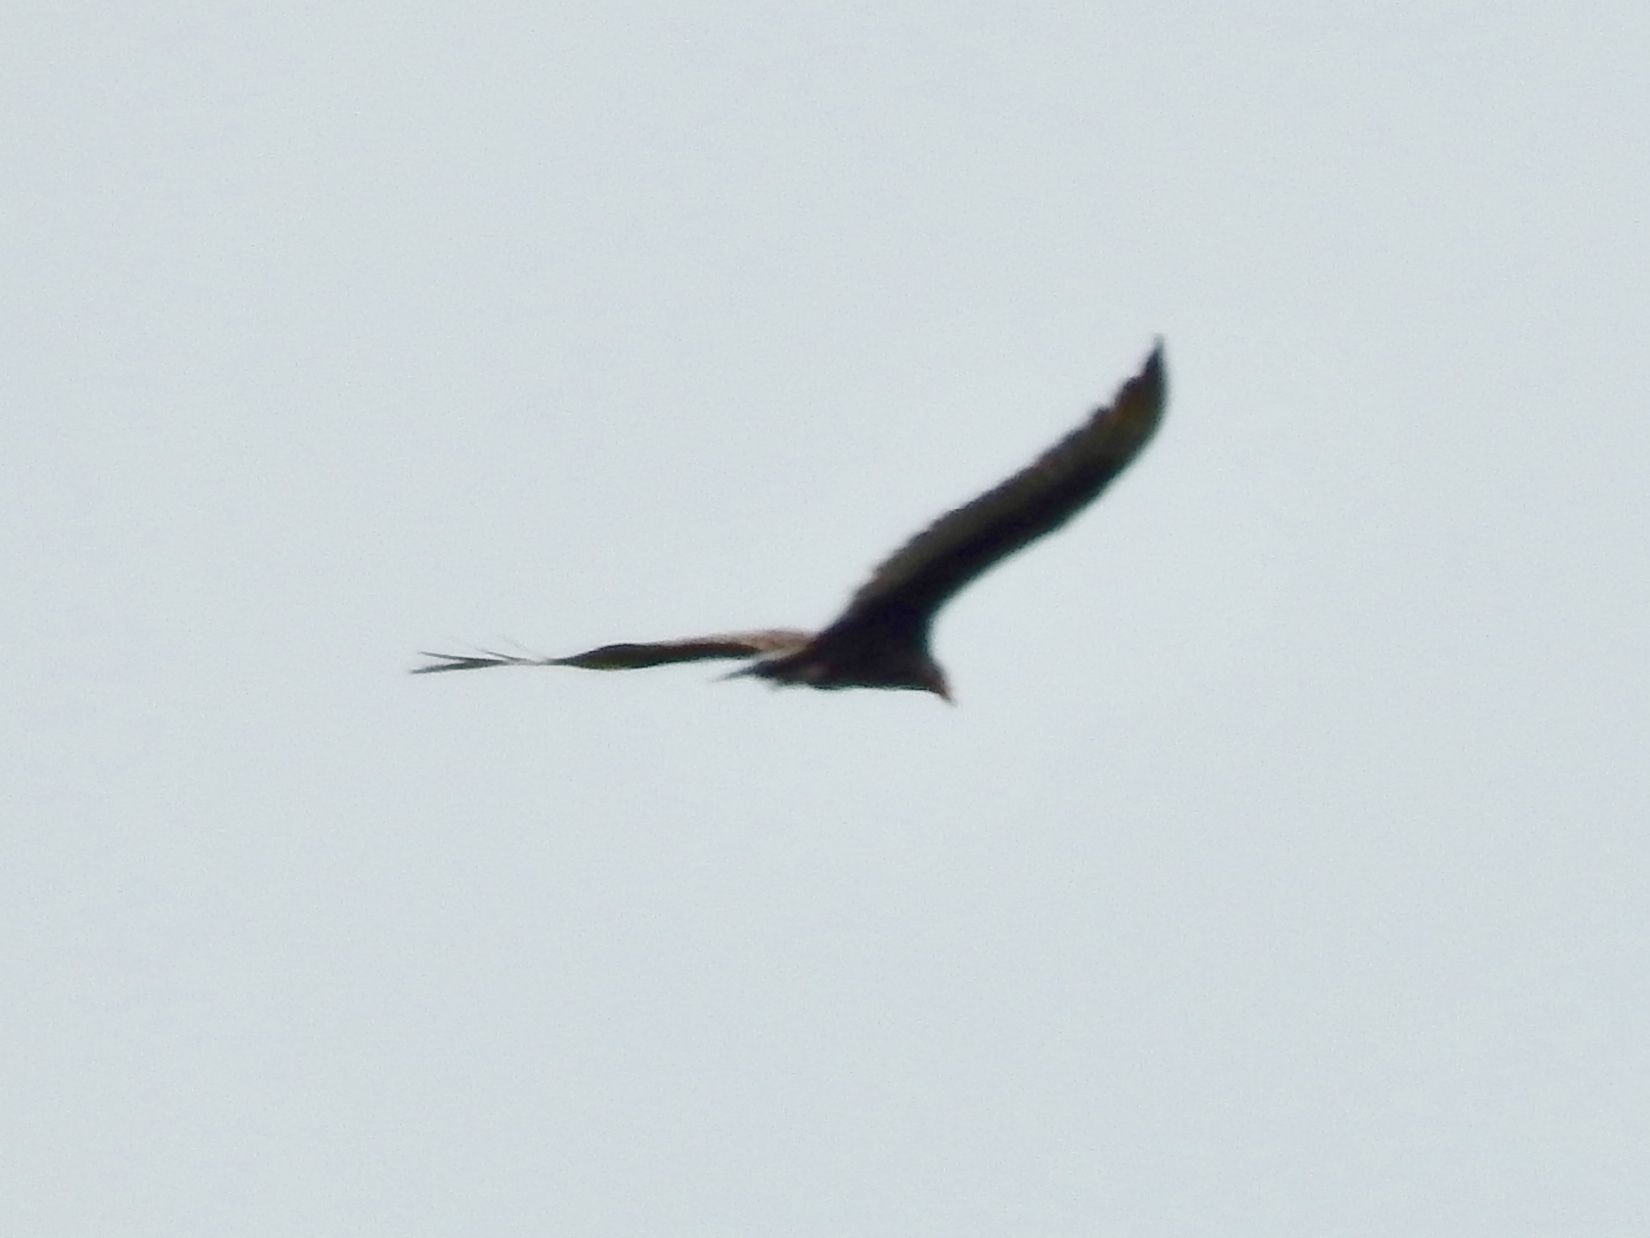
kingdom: Animalia
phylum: Chordata
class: Aves
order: Accipitriformes
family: Cathartidae
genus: Cathartes
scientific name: Cathartes aura
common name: Turkey vulture
